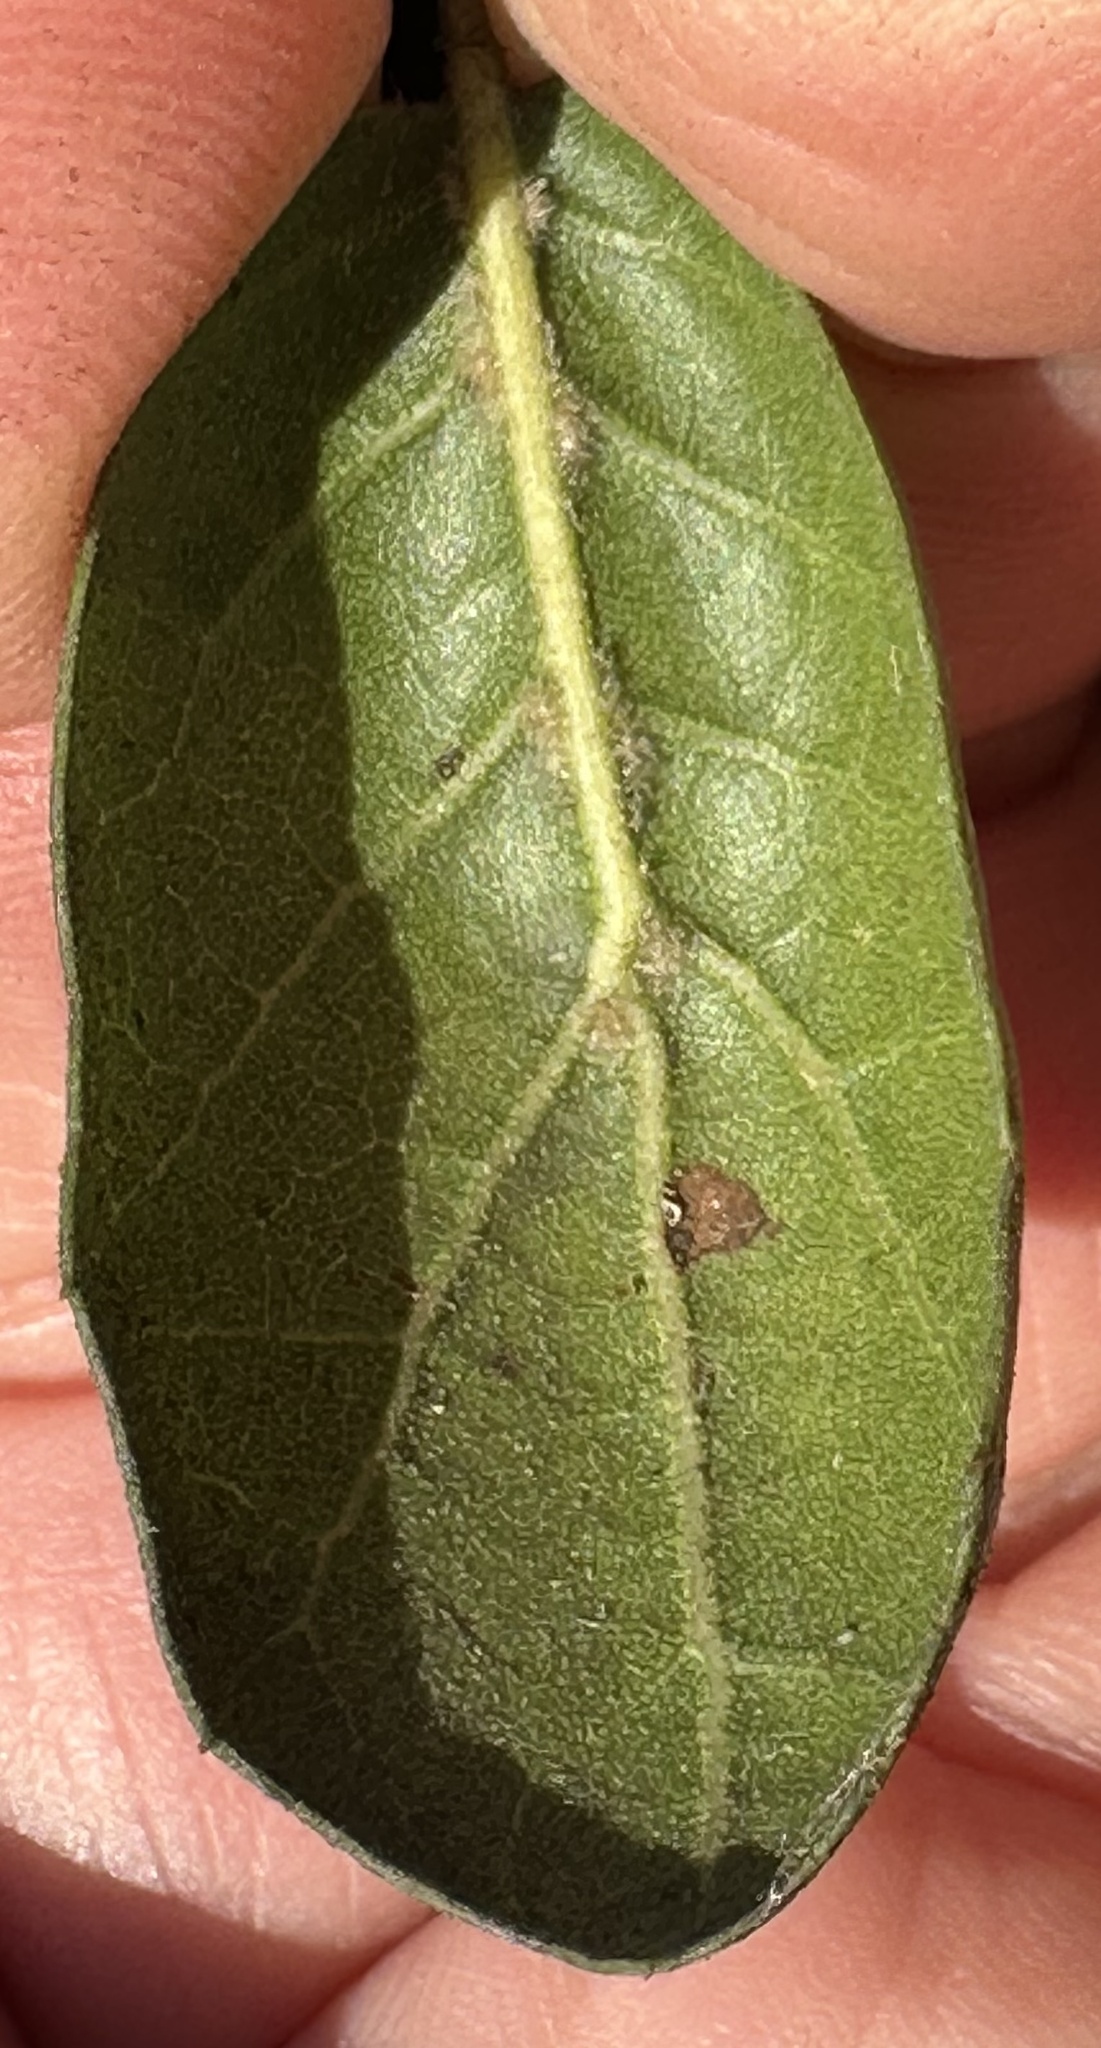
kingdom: Plantae
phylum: Tracheophyta
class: Magnoliopsida
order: Fagales
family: Fagaceae
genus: Quercus
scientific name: Quercus agrifolia
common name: California live oak
